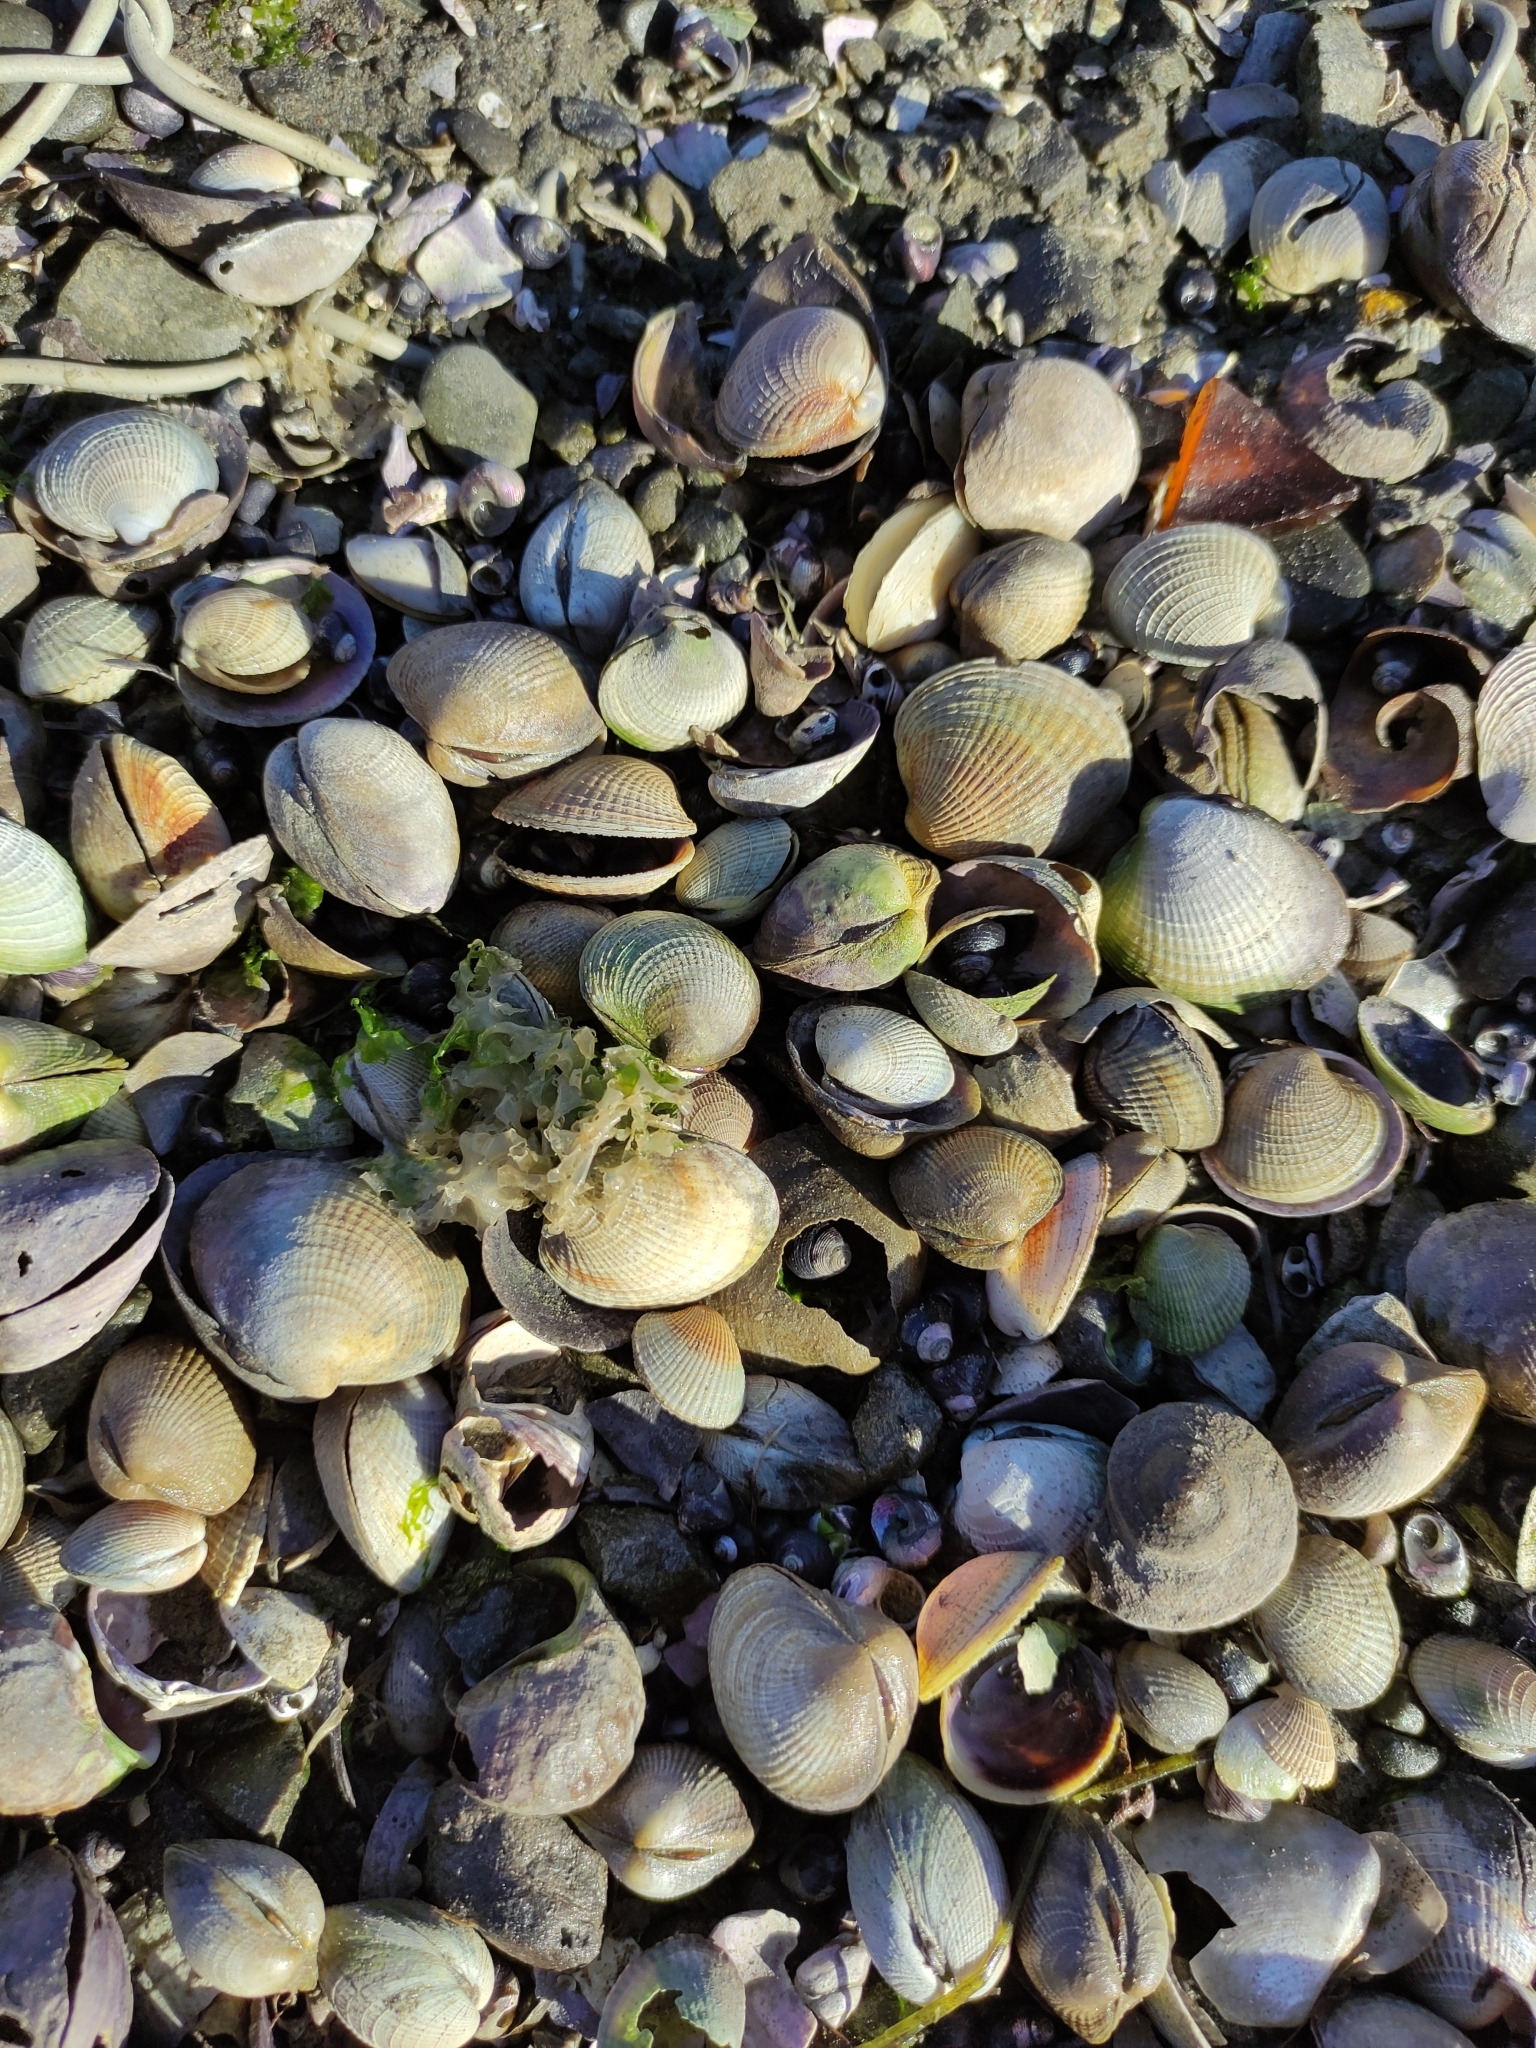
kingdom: Animalia
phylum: Mollusca
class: Bivalvia
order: Venerida
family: Veneridae
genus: Austrovenus
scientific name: Austrovenus stutchburyi
